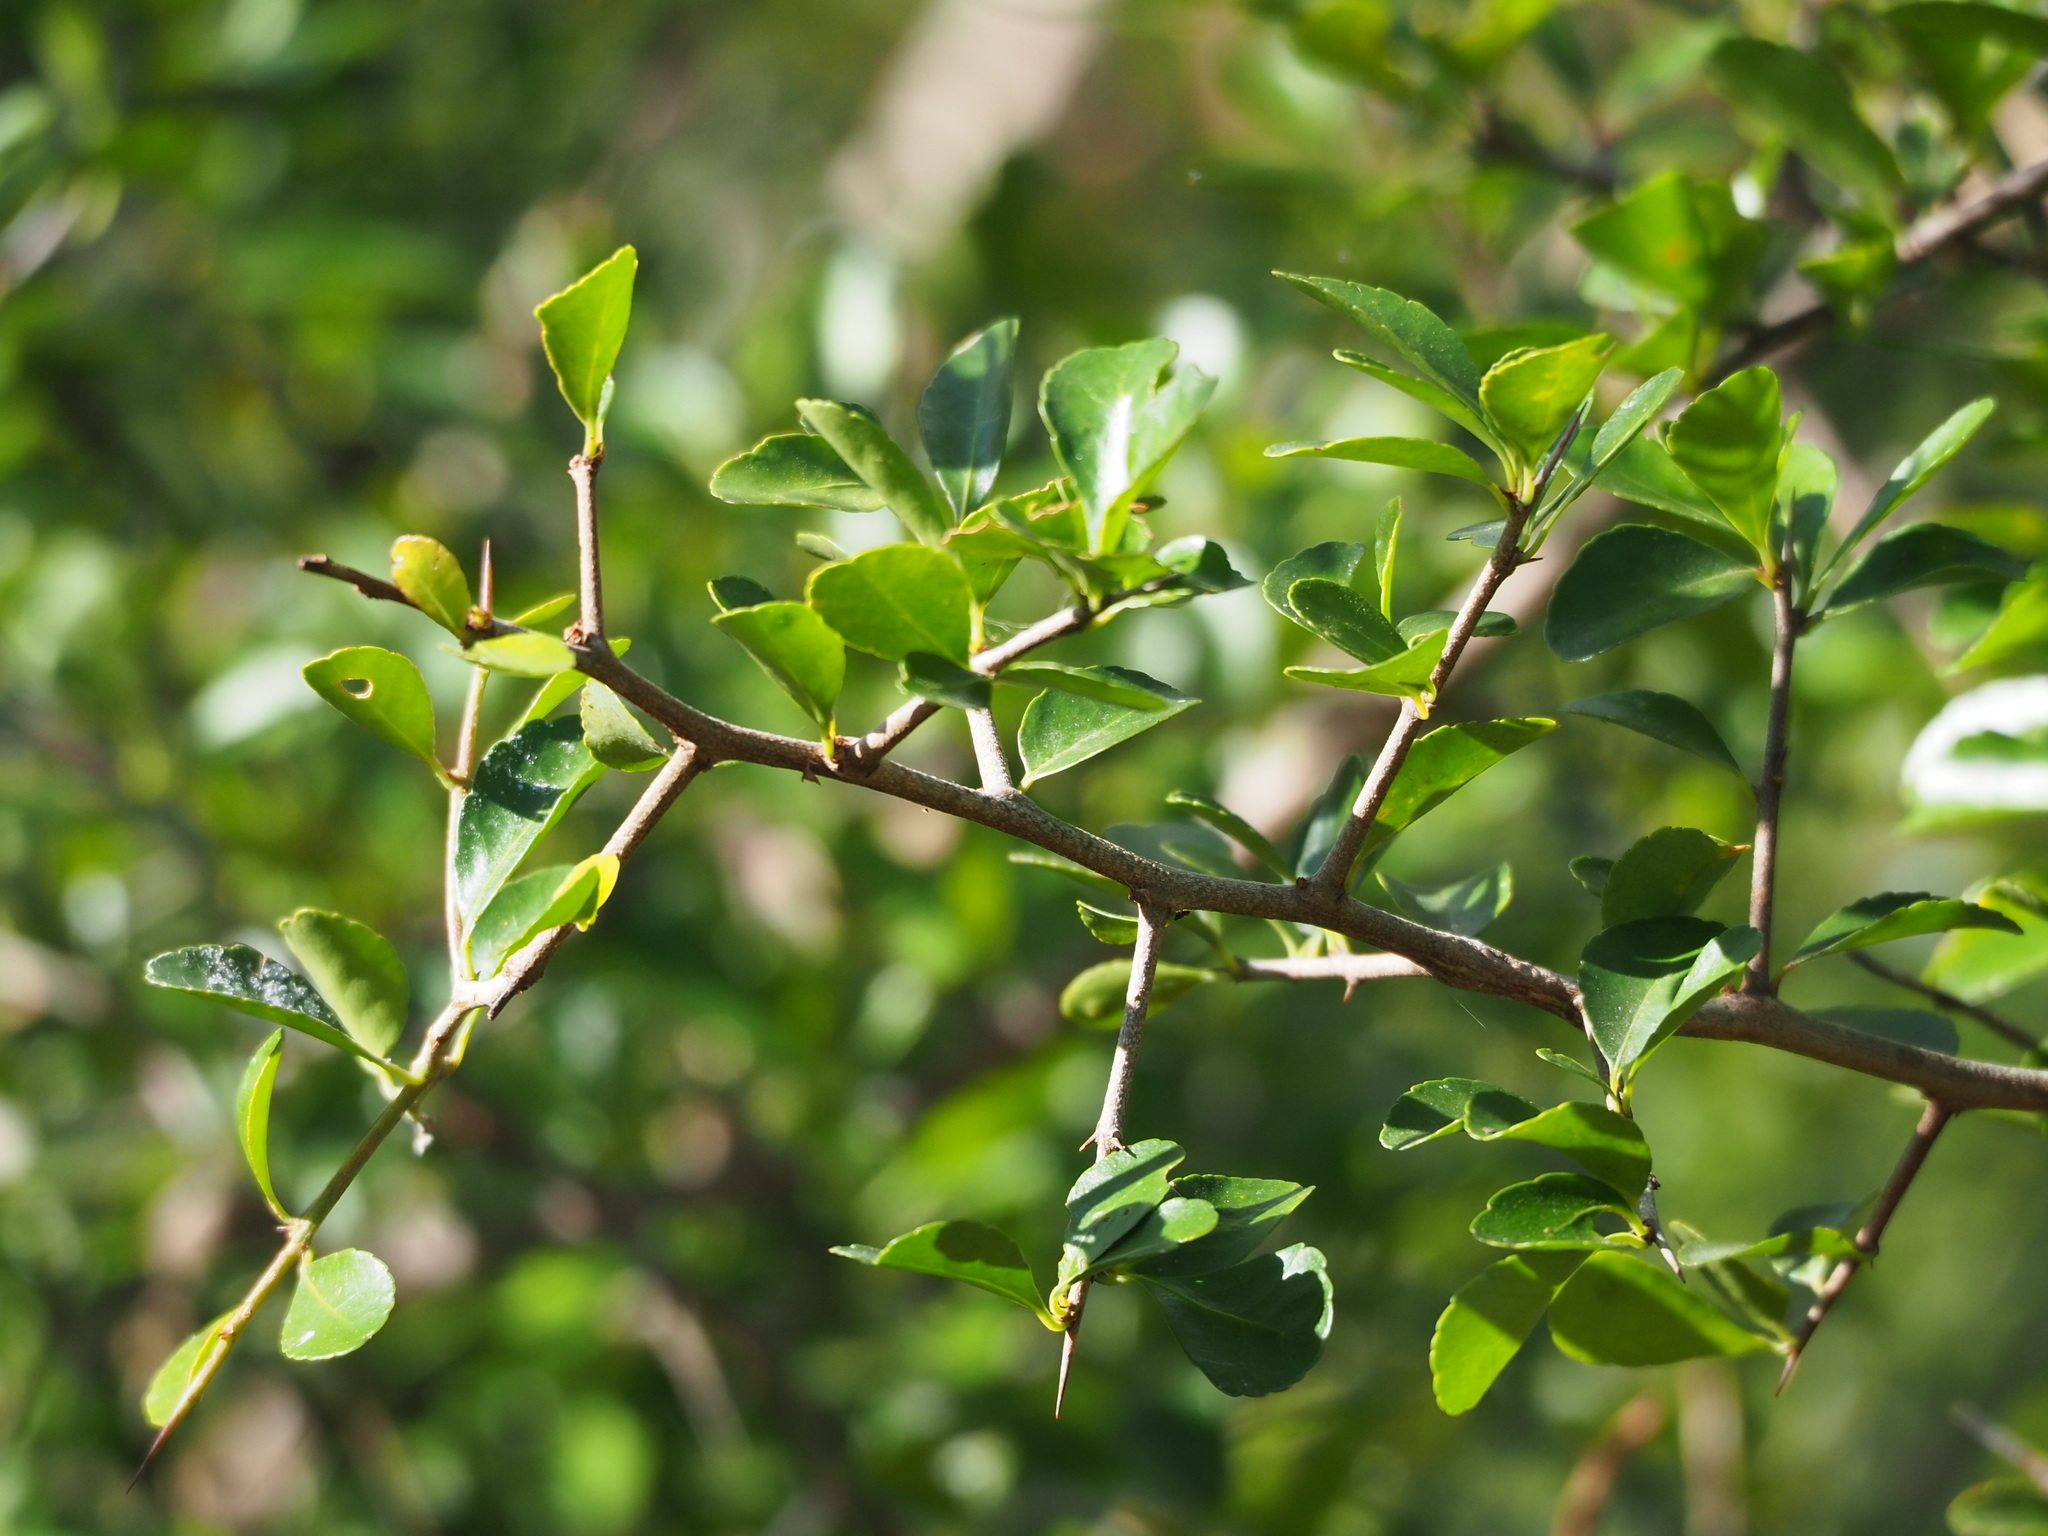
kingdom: Plantae
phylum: Tracheophyta
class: Magnoliopsida
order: Celastrales
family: Celastraceae
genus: Gymnosporia
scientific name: Gymnosporia diversifolia
